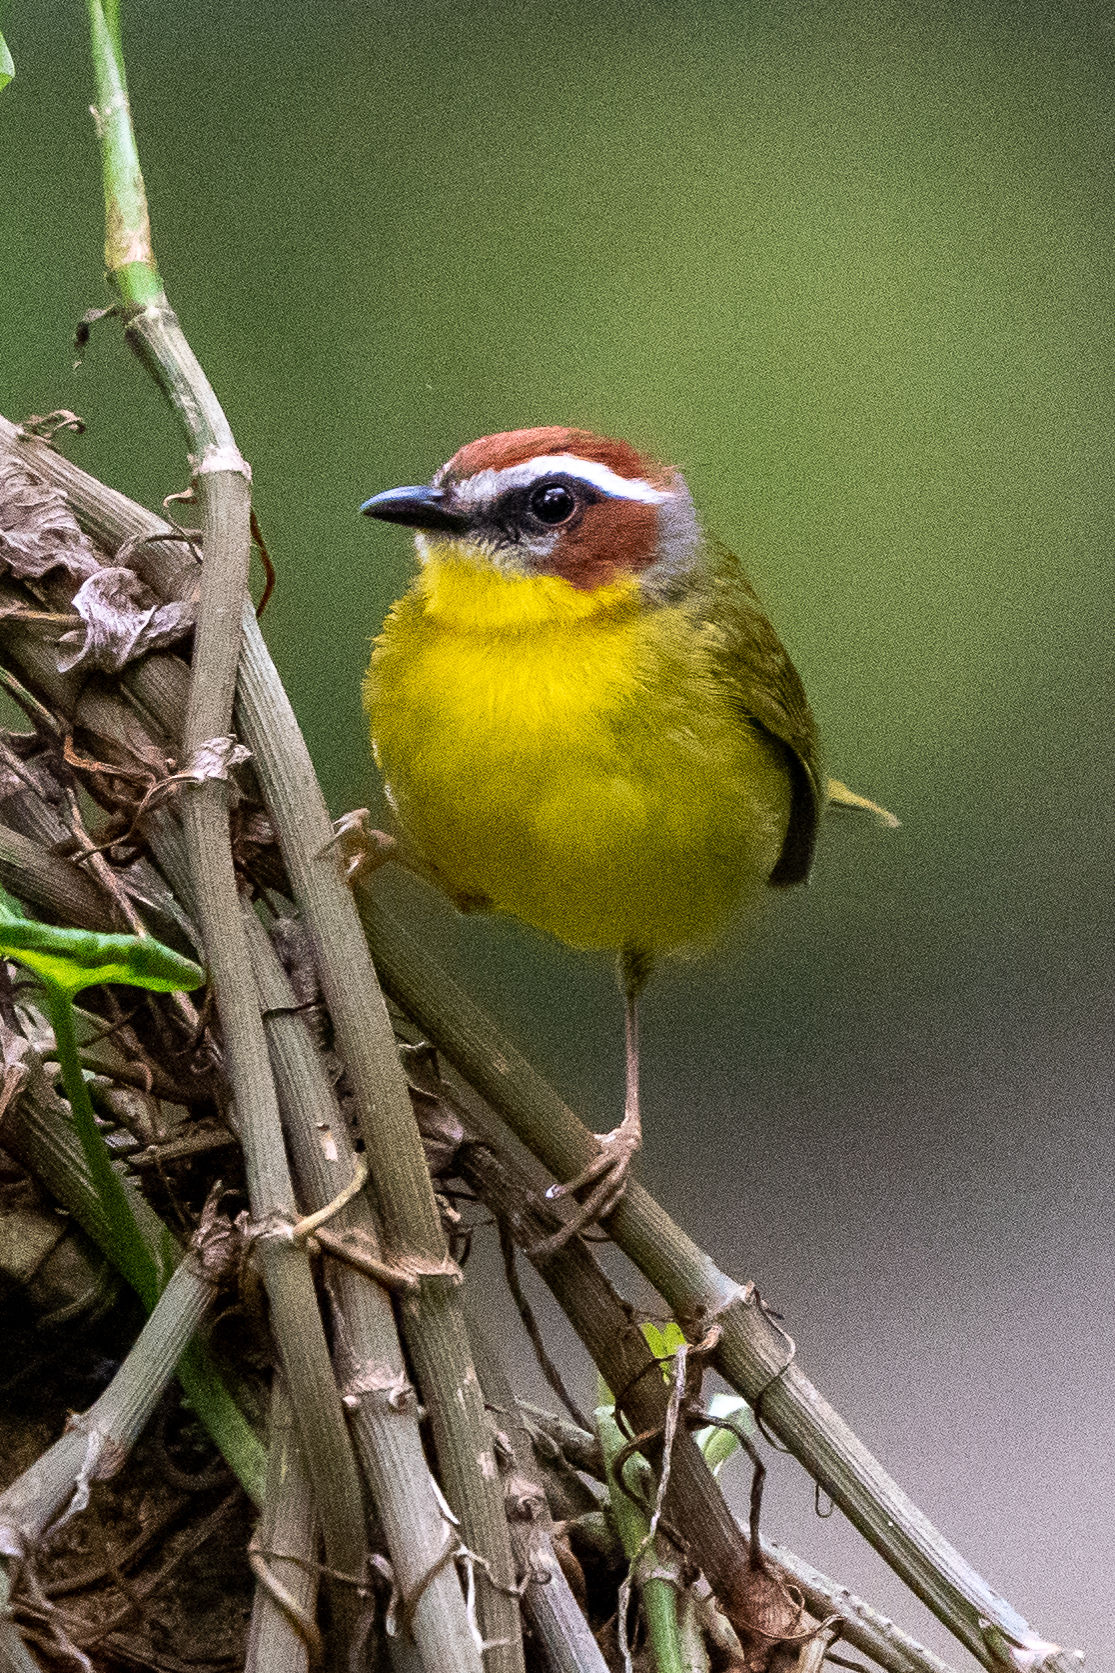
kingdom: Animalia
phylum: Chordata
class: Aves
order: Passeriformes
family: Parulidae
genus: Basileuterus
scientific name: Basileuterus rufifrons
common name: Rufous-capped warbler
